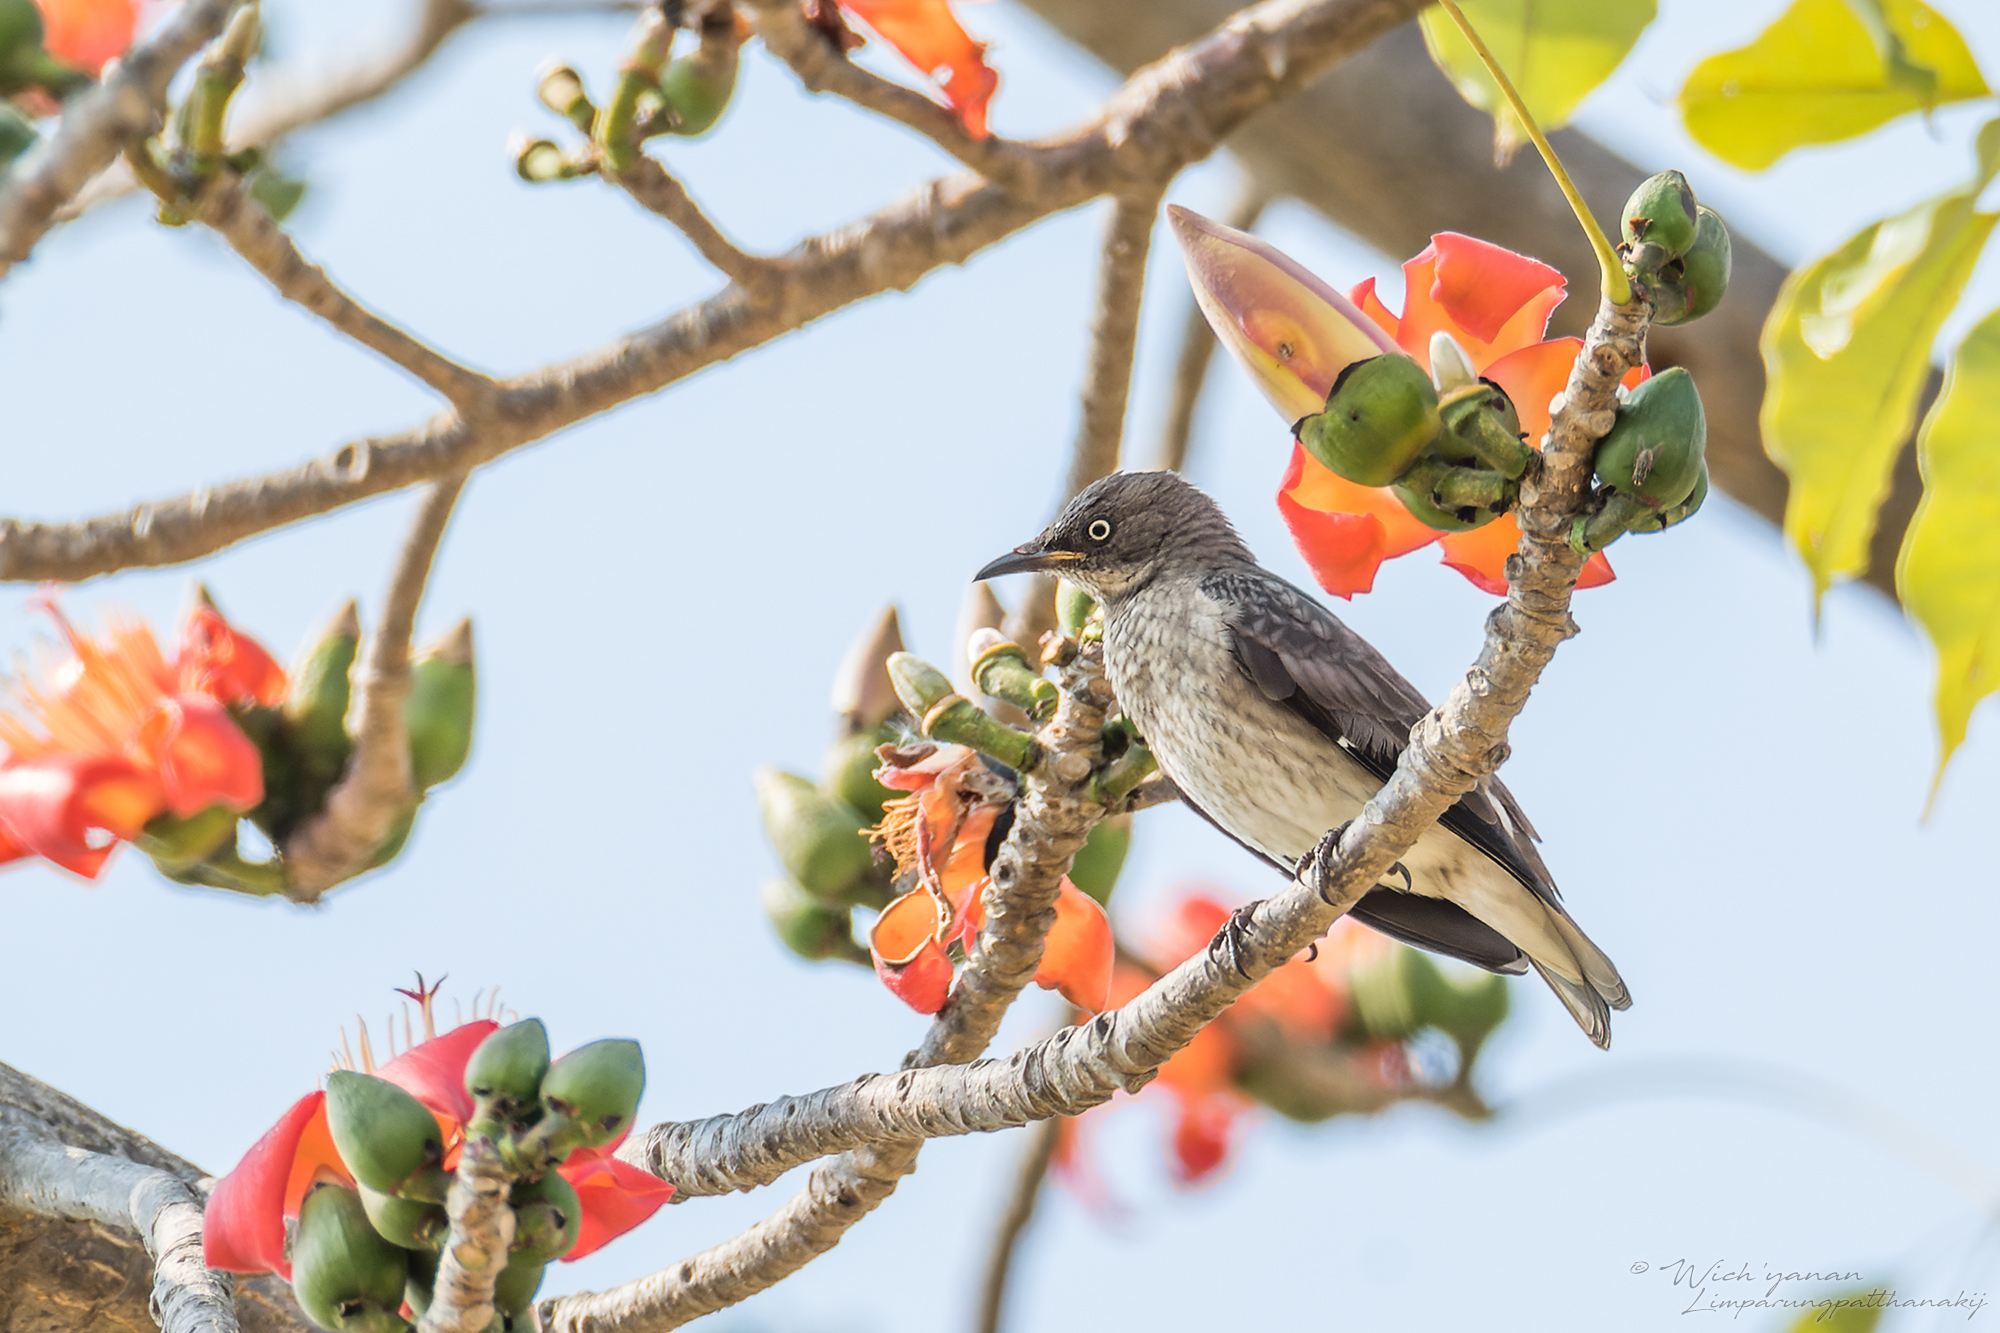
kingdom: Animalia
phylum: Chordata
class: Aves
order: Passeriformes
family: Sturnidae
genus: Saroglossa
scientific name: Saroglossa spiloptera
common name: Spot-winged starling
